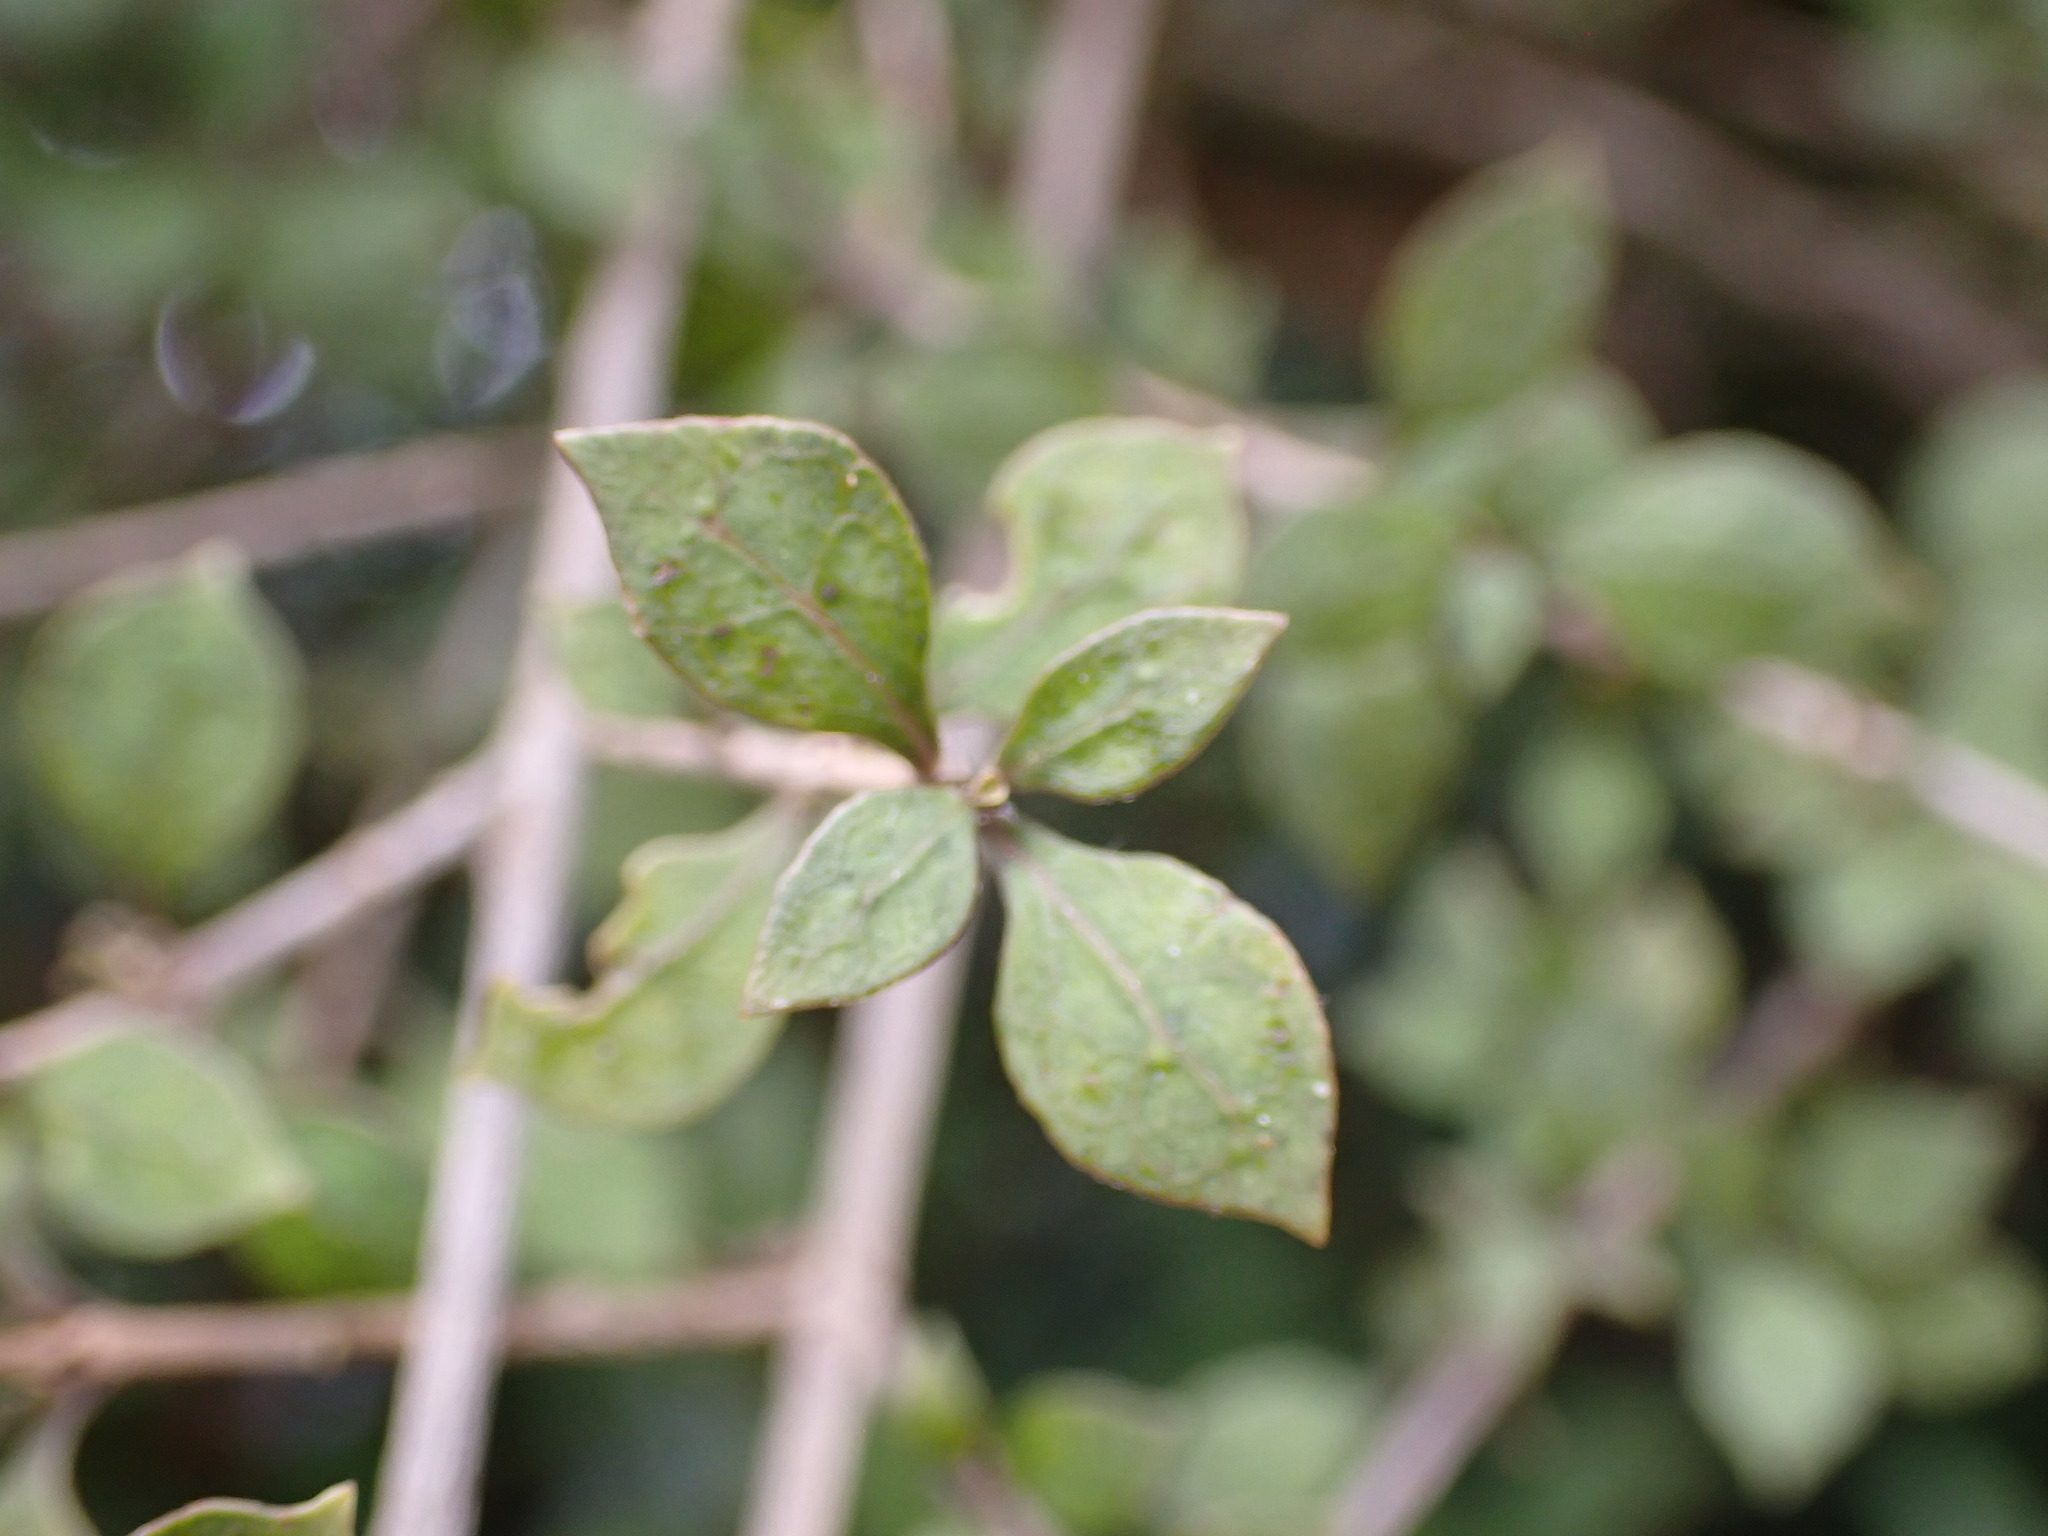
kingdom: Plantae
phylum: Tracheophyta
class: Magnoliopsida
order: Gentianales
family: Rubiaceae
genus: Coprosma
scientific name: Coprosma areolata
